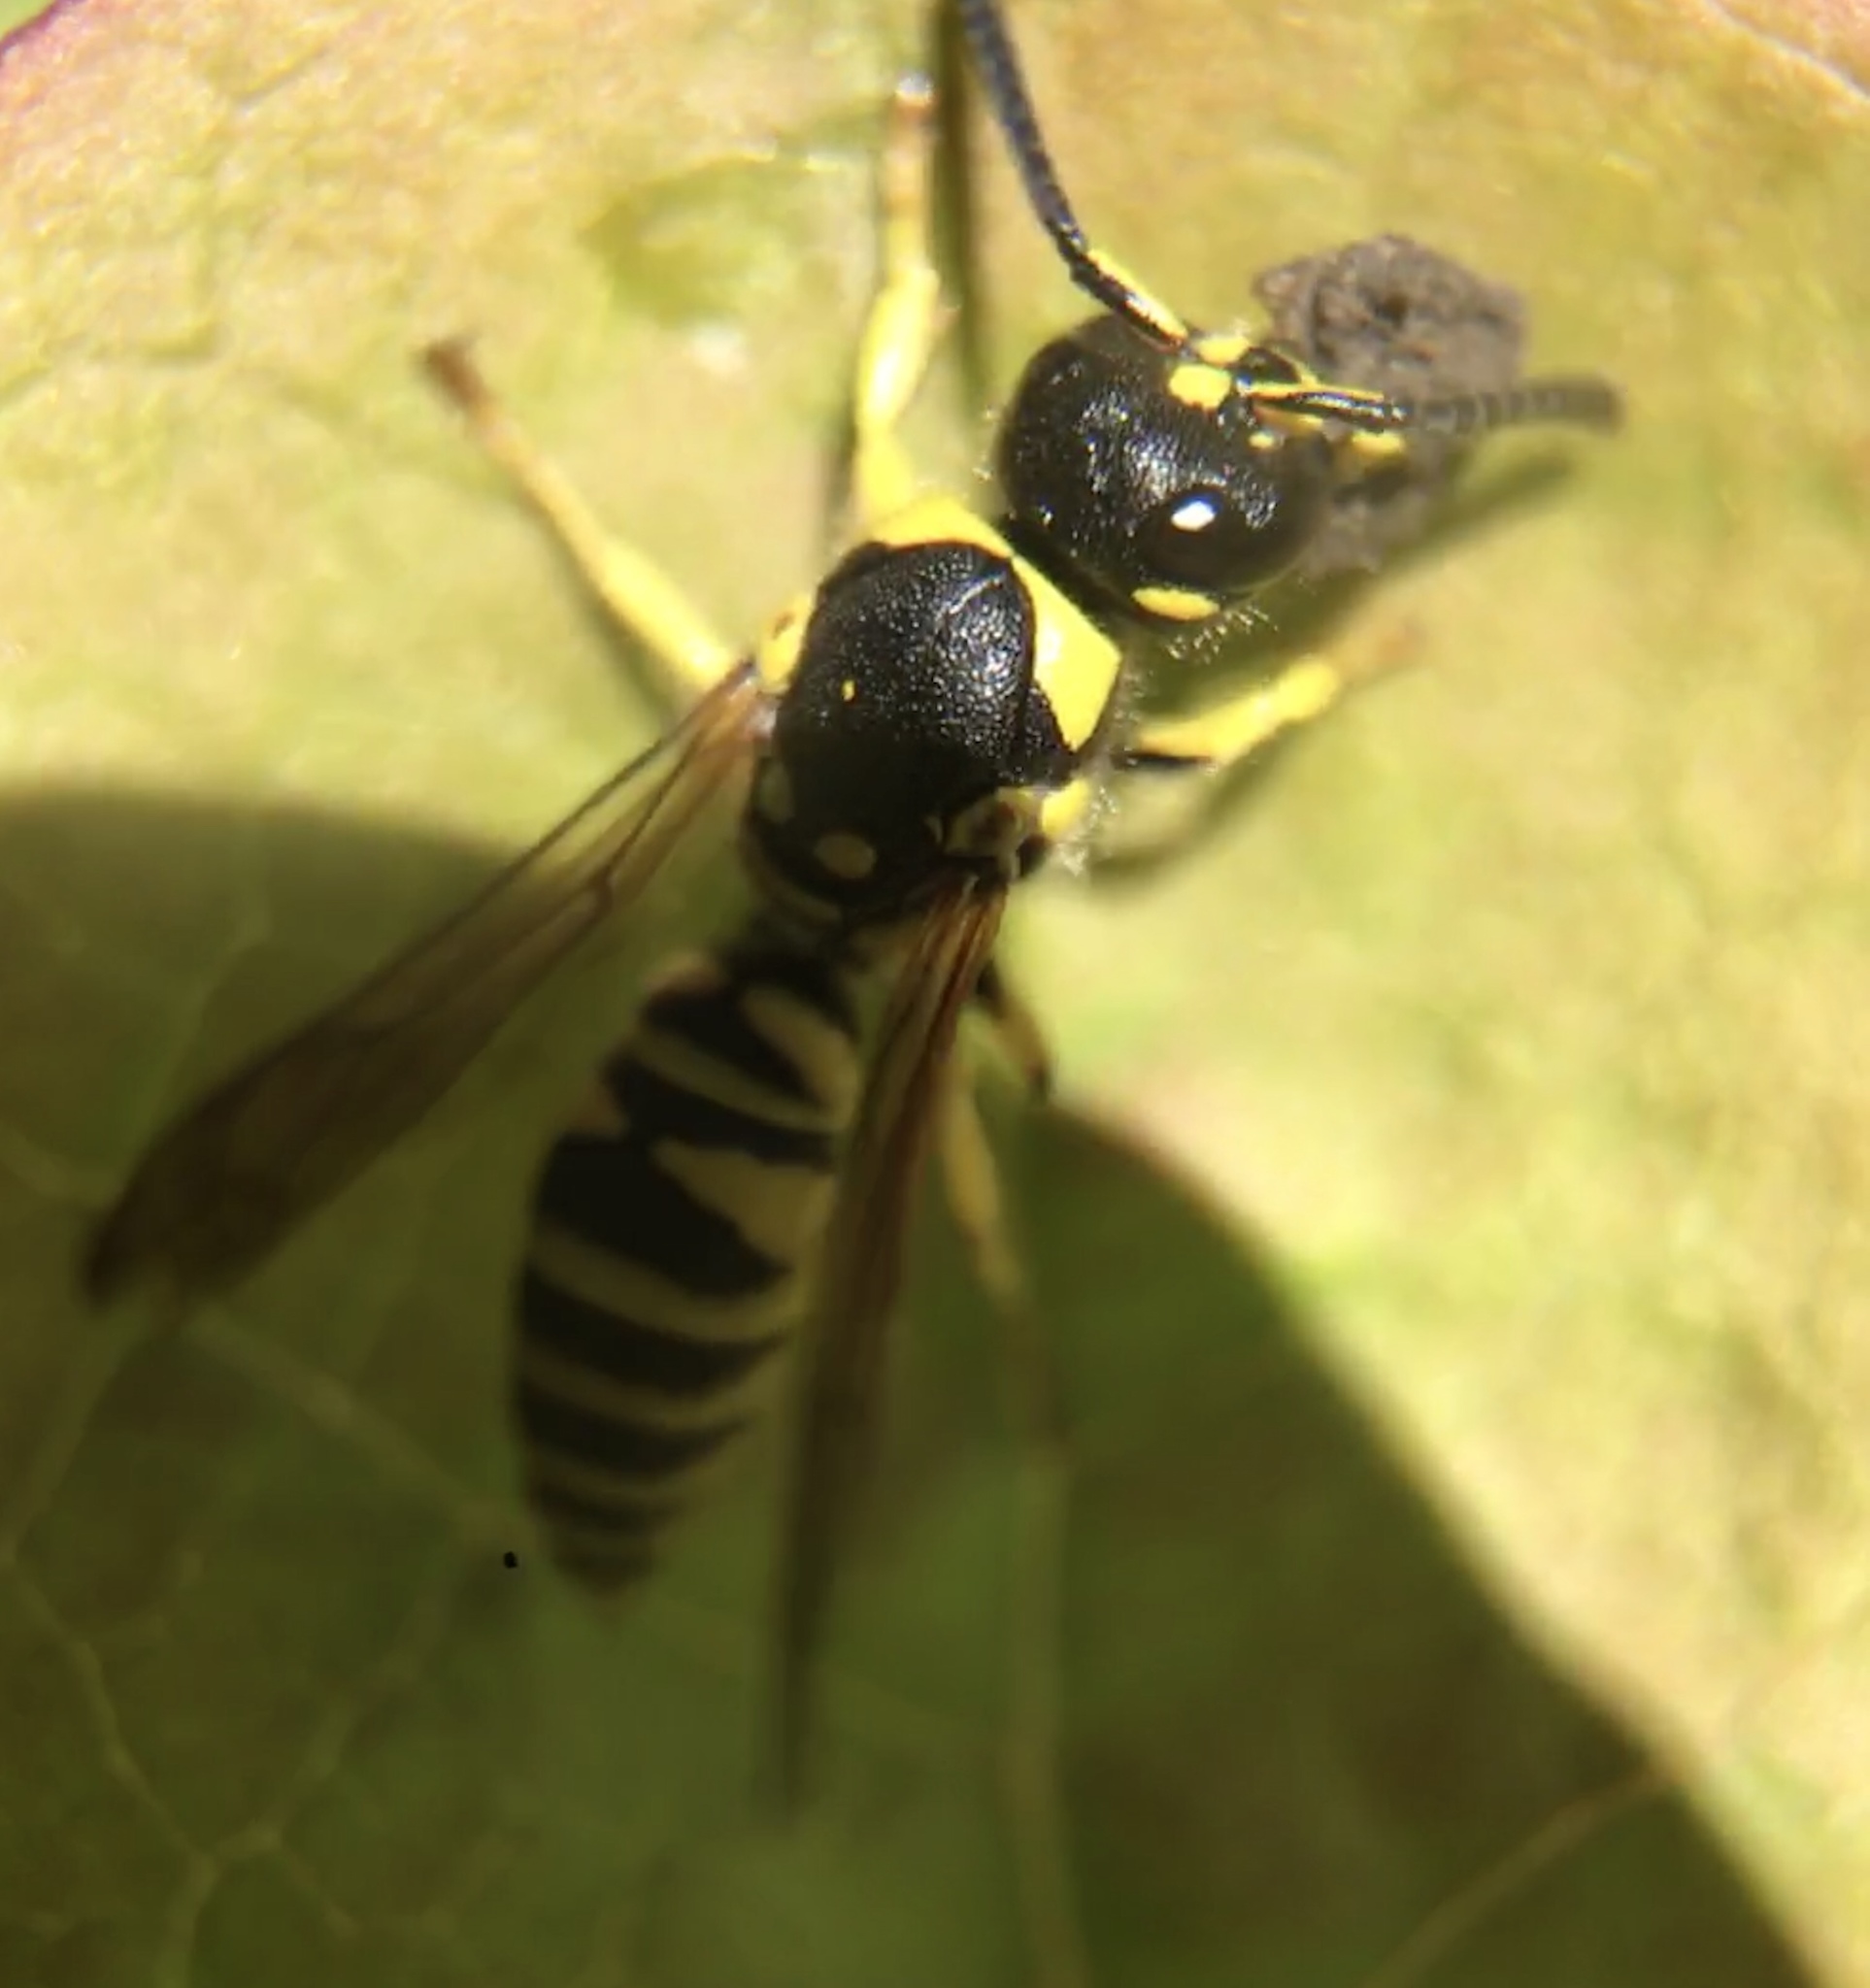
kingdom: Animalia
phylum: Arthropoda
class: Insecta
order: Hymenoptera
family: Vespidae
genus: Ancistrocerus
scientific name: Ancistrocerus adiabatus
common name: Bramble mason wasp
